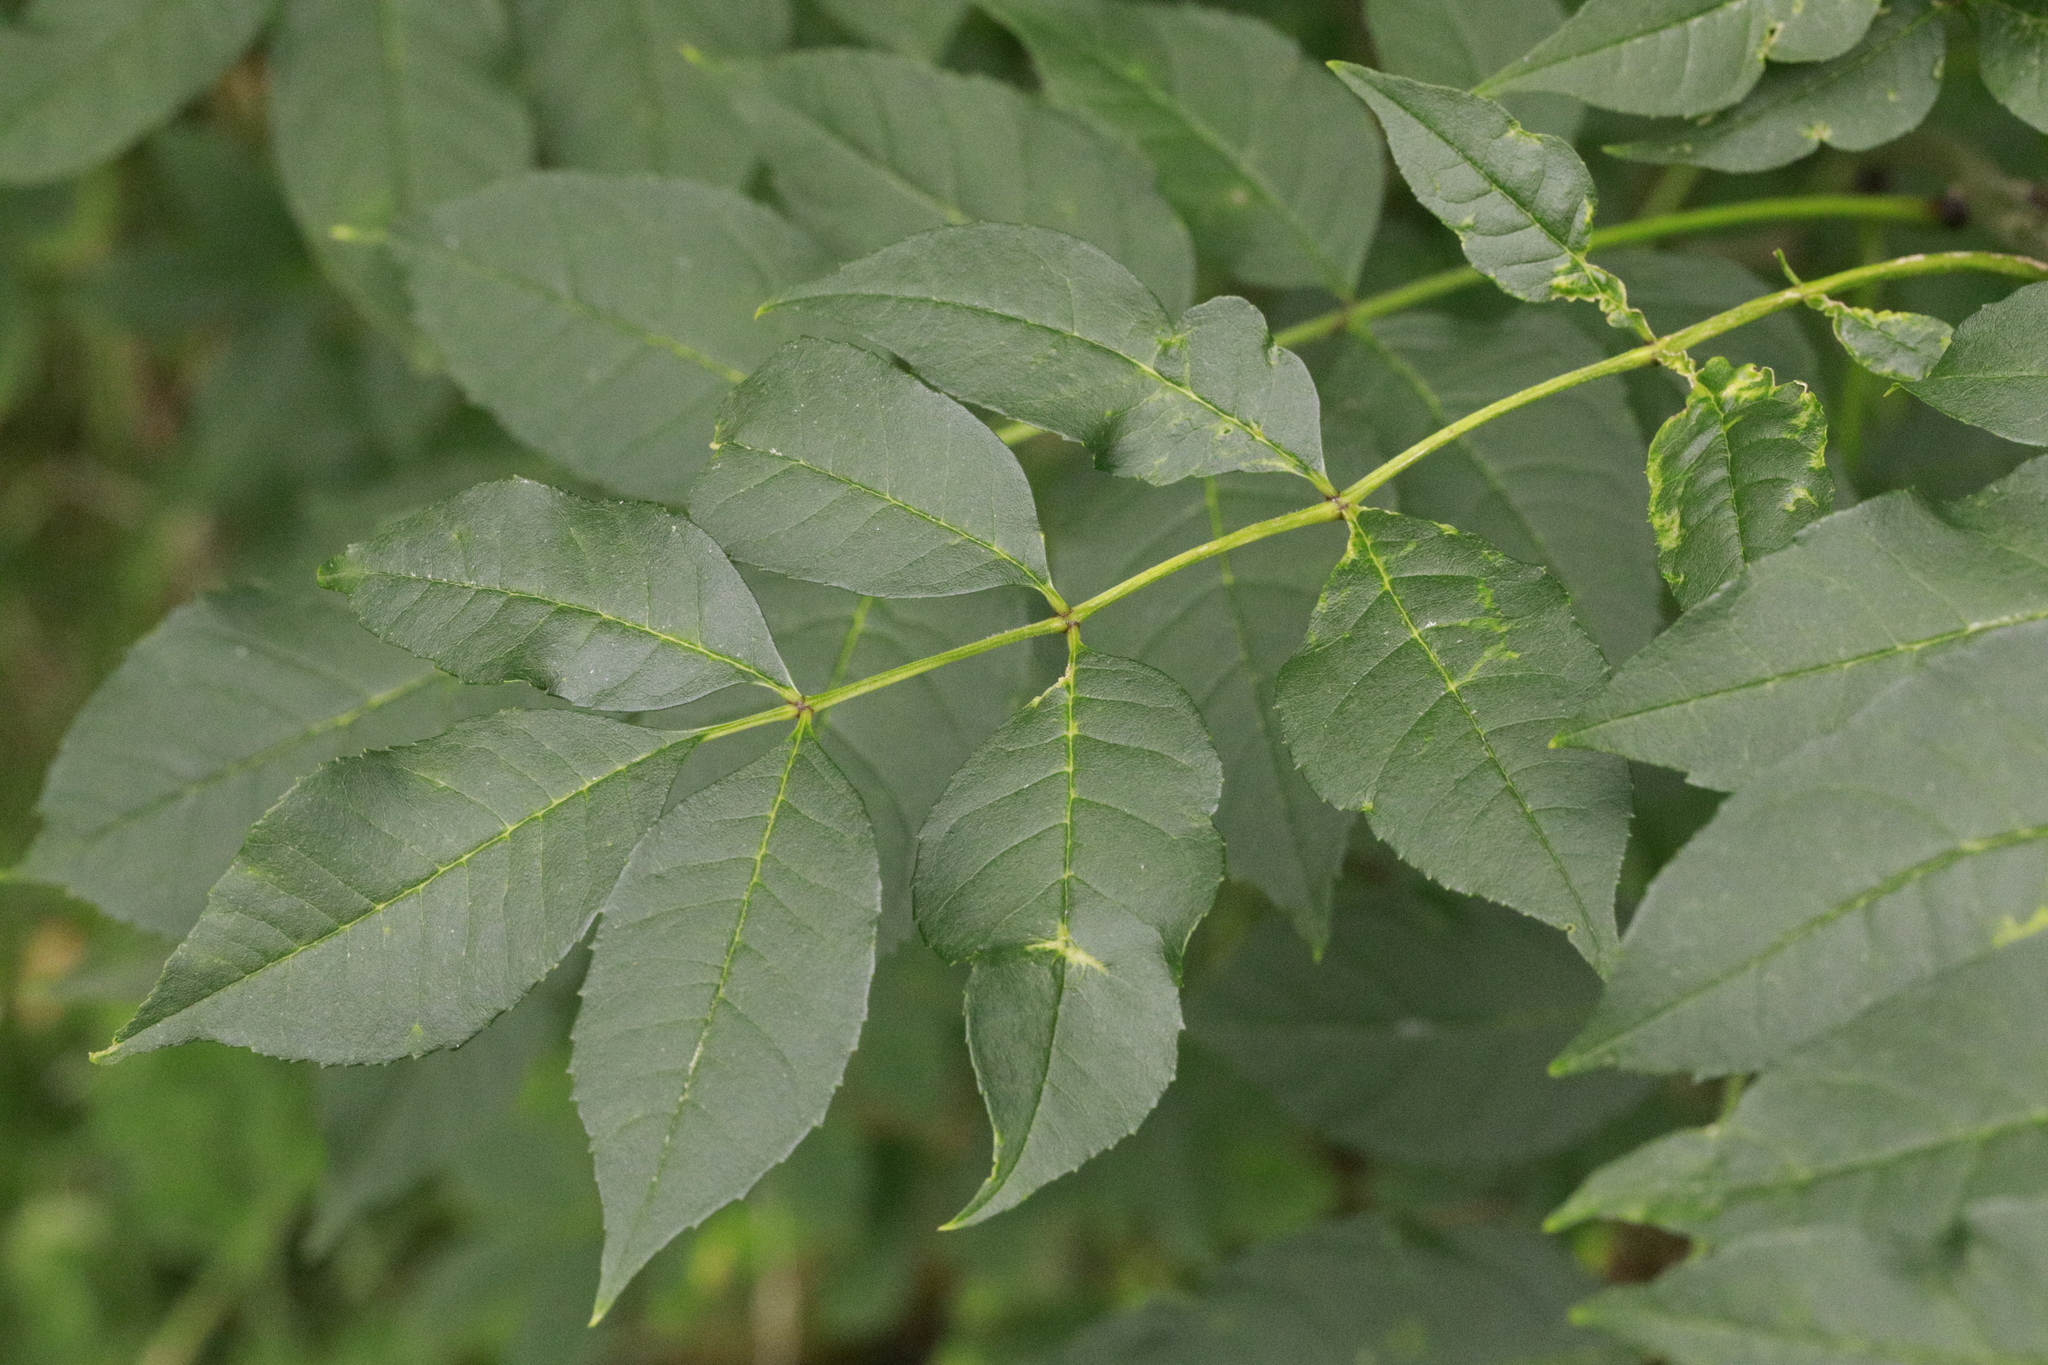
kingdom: Plantae
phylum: Tracheophyta
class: Magnoliopsida
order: Lamiales
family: Oleaceae
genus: Fraxinus
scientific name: Fraxinus excelsior
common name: European ash
